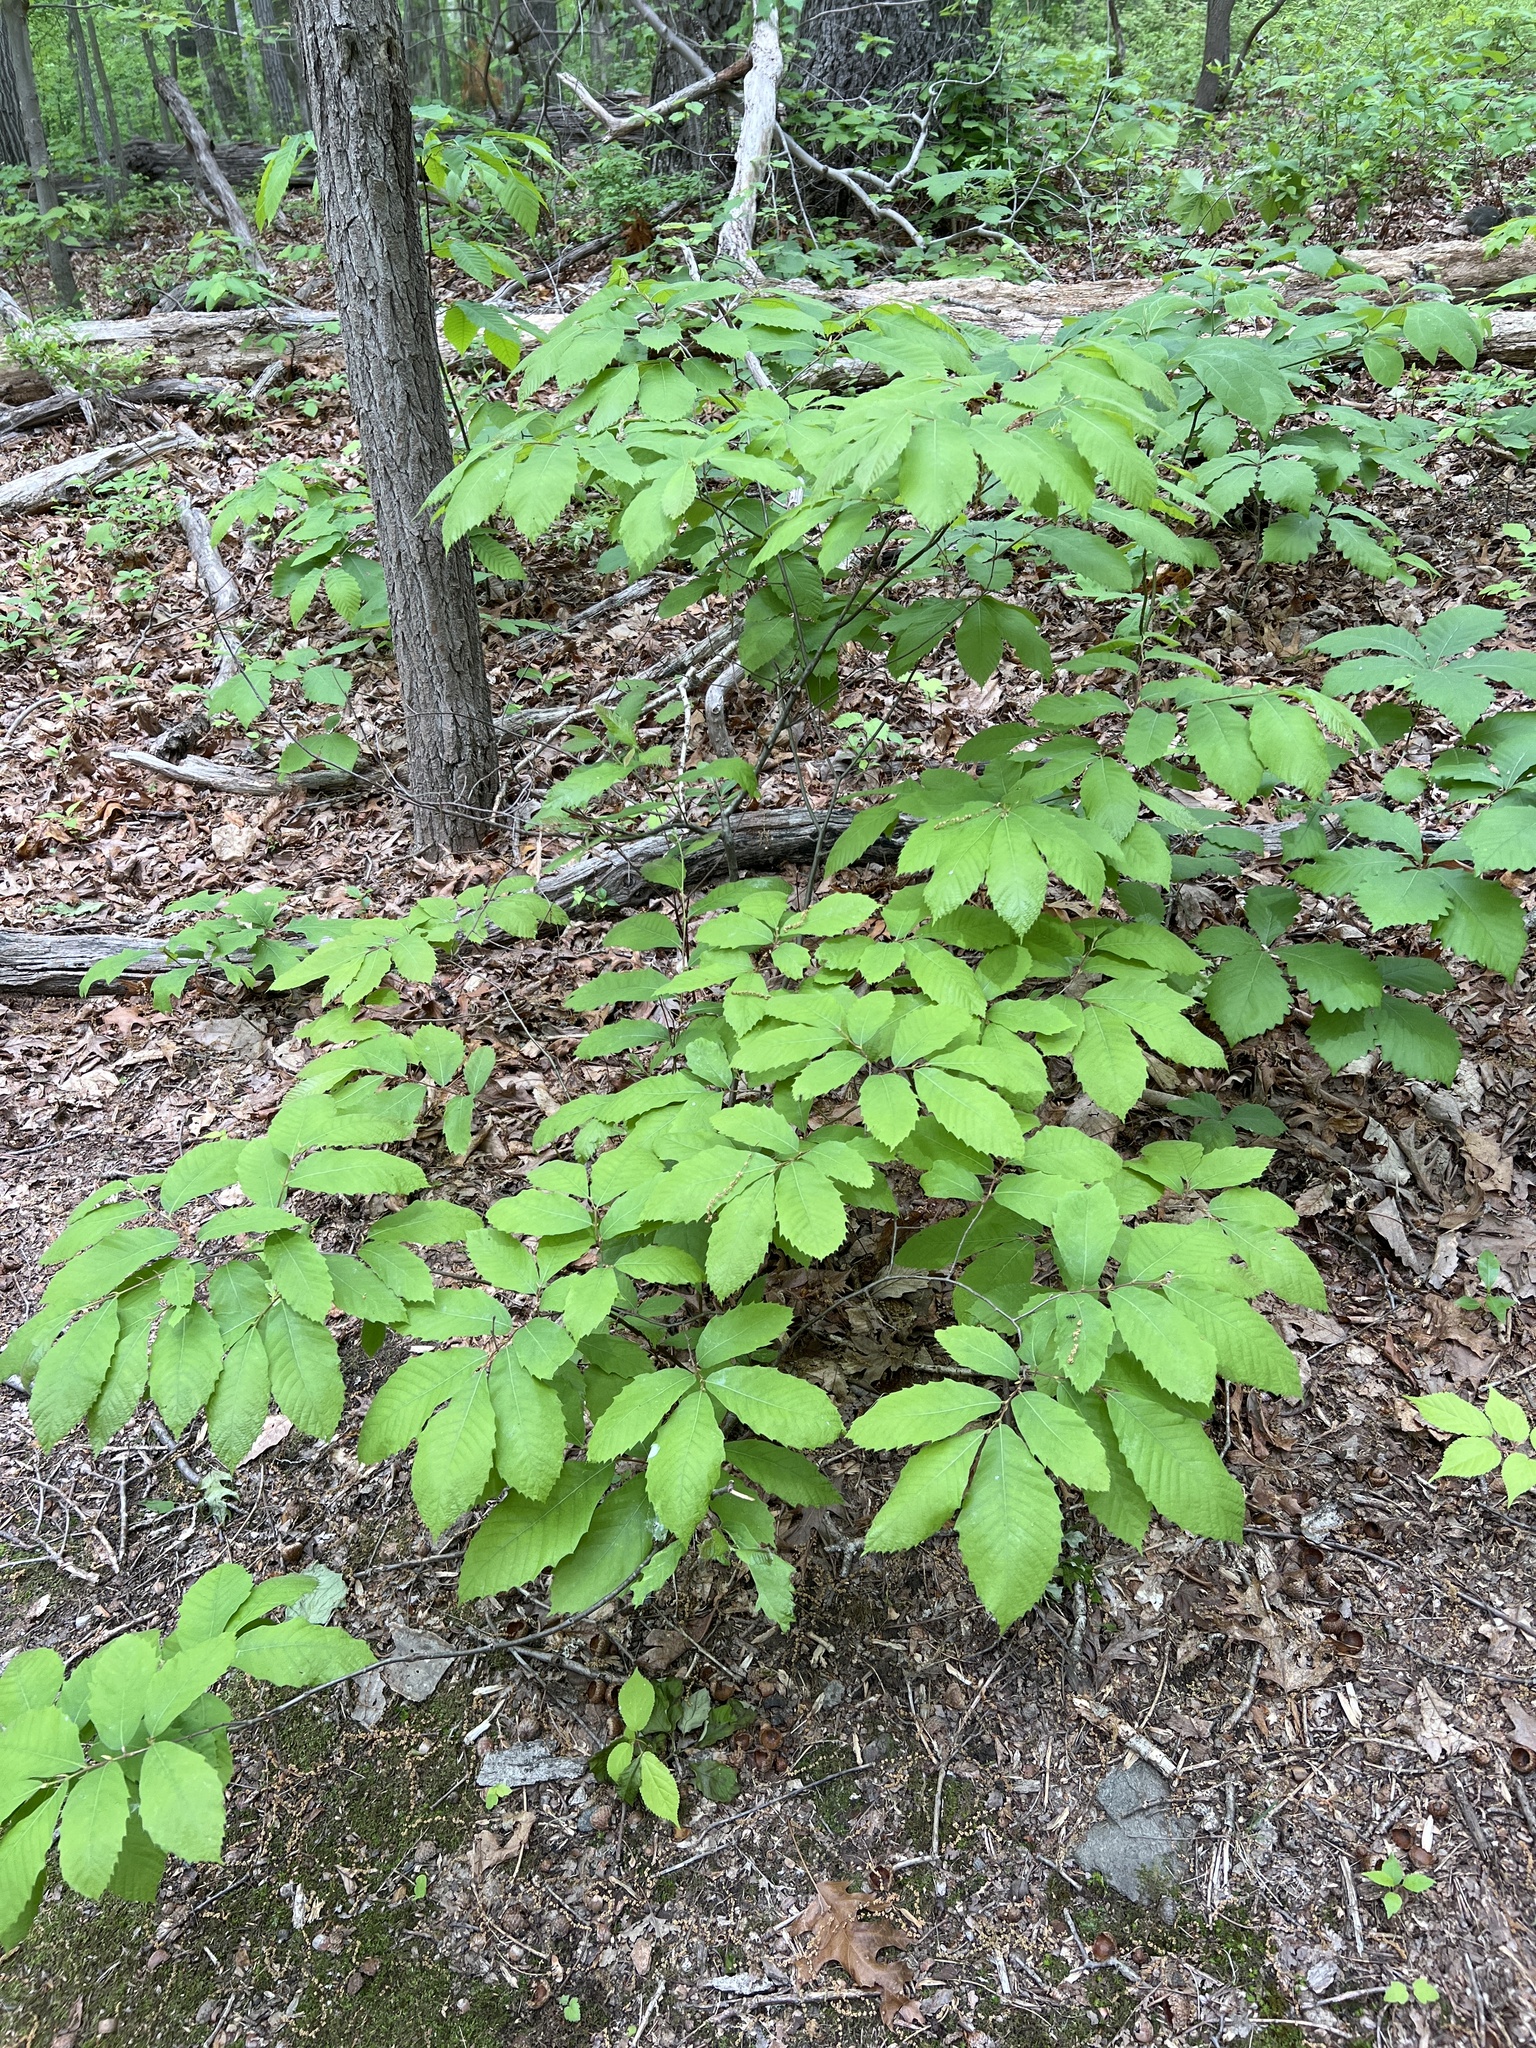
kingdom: Plantae
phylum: Tracheophyta
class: Magnoliopsida
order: Fagales
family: Fagaceae
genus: Castanea
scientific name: Castanea pumila
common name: Chinkapin
